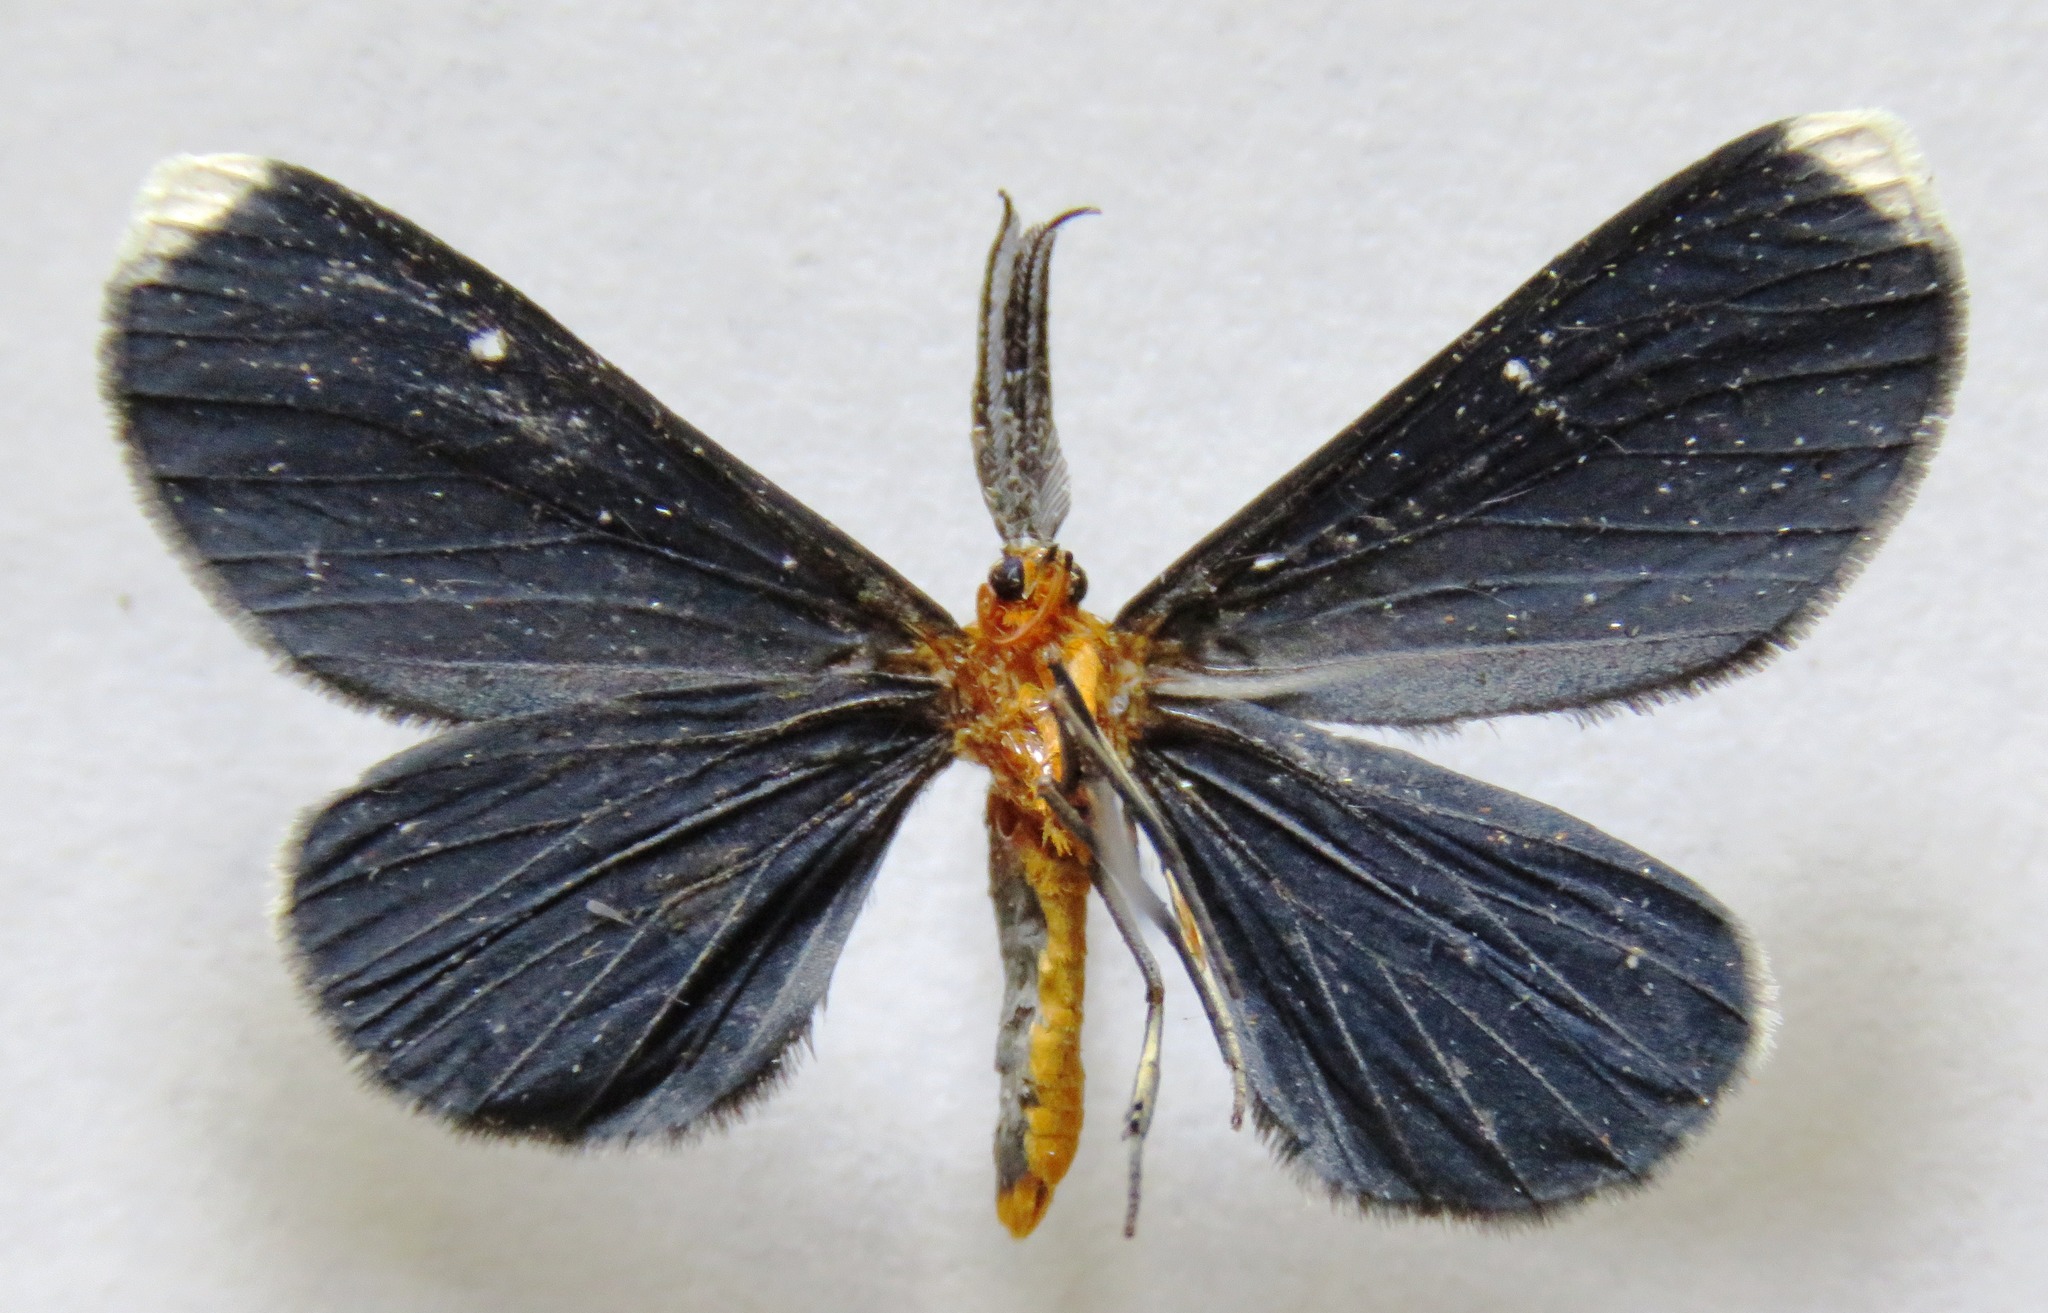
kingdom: Animalia
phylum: Arthropoda
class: Insecta
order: Lepidoptera
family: Geometridae
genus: Melanchroia
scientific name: Melanchroia chephise
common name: White-tipped black
